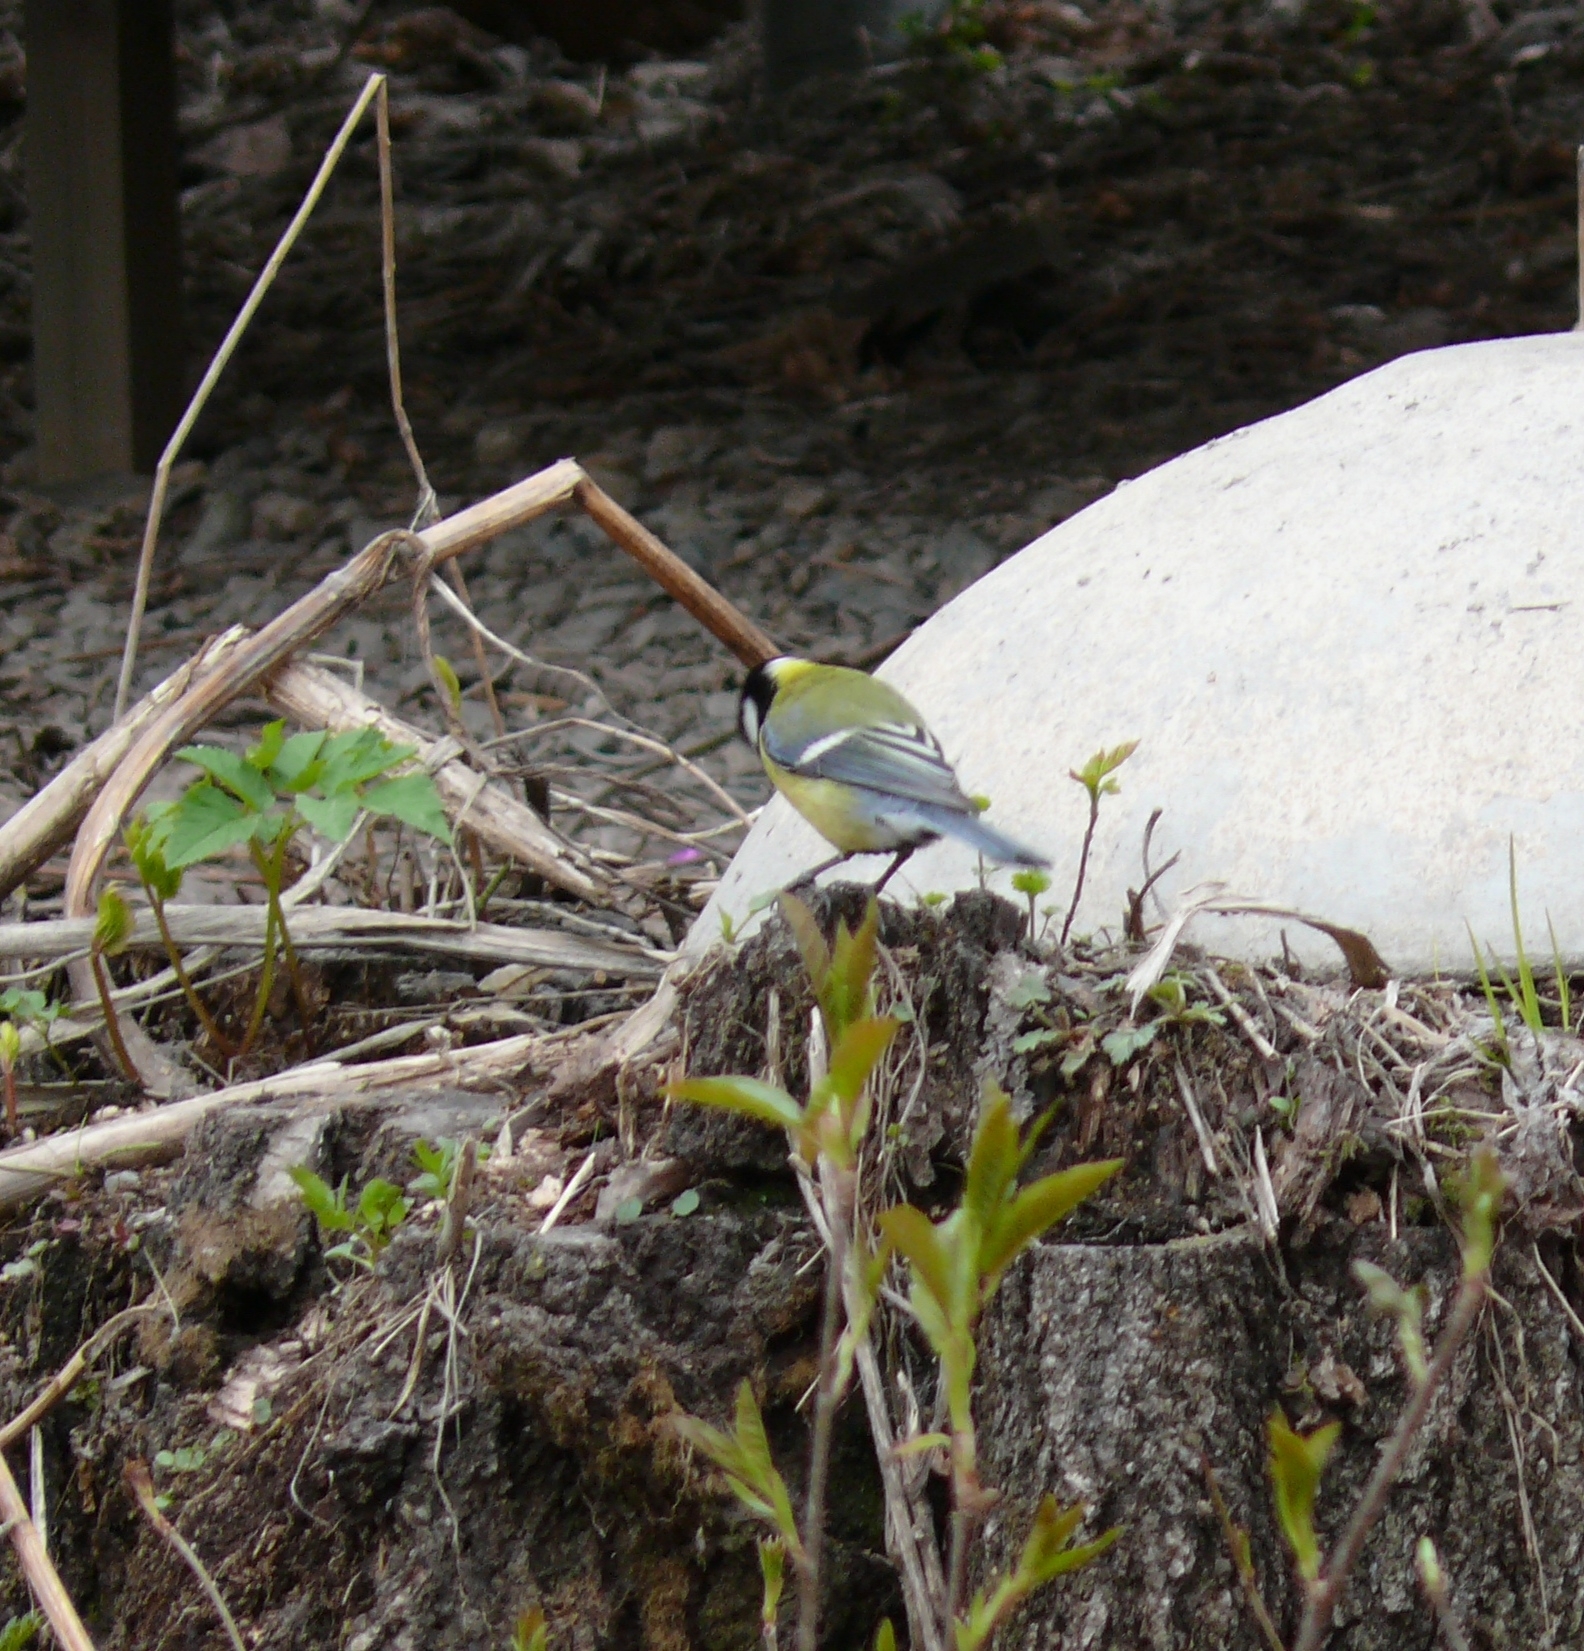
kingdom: Animalia
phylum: Chordata
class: Aves
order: Passeriformes
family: Paridae
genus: Parus
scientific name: Parus major
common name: Great tit
